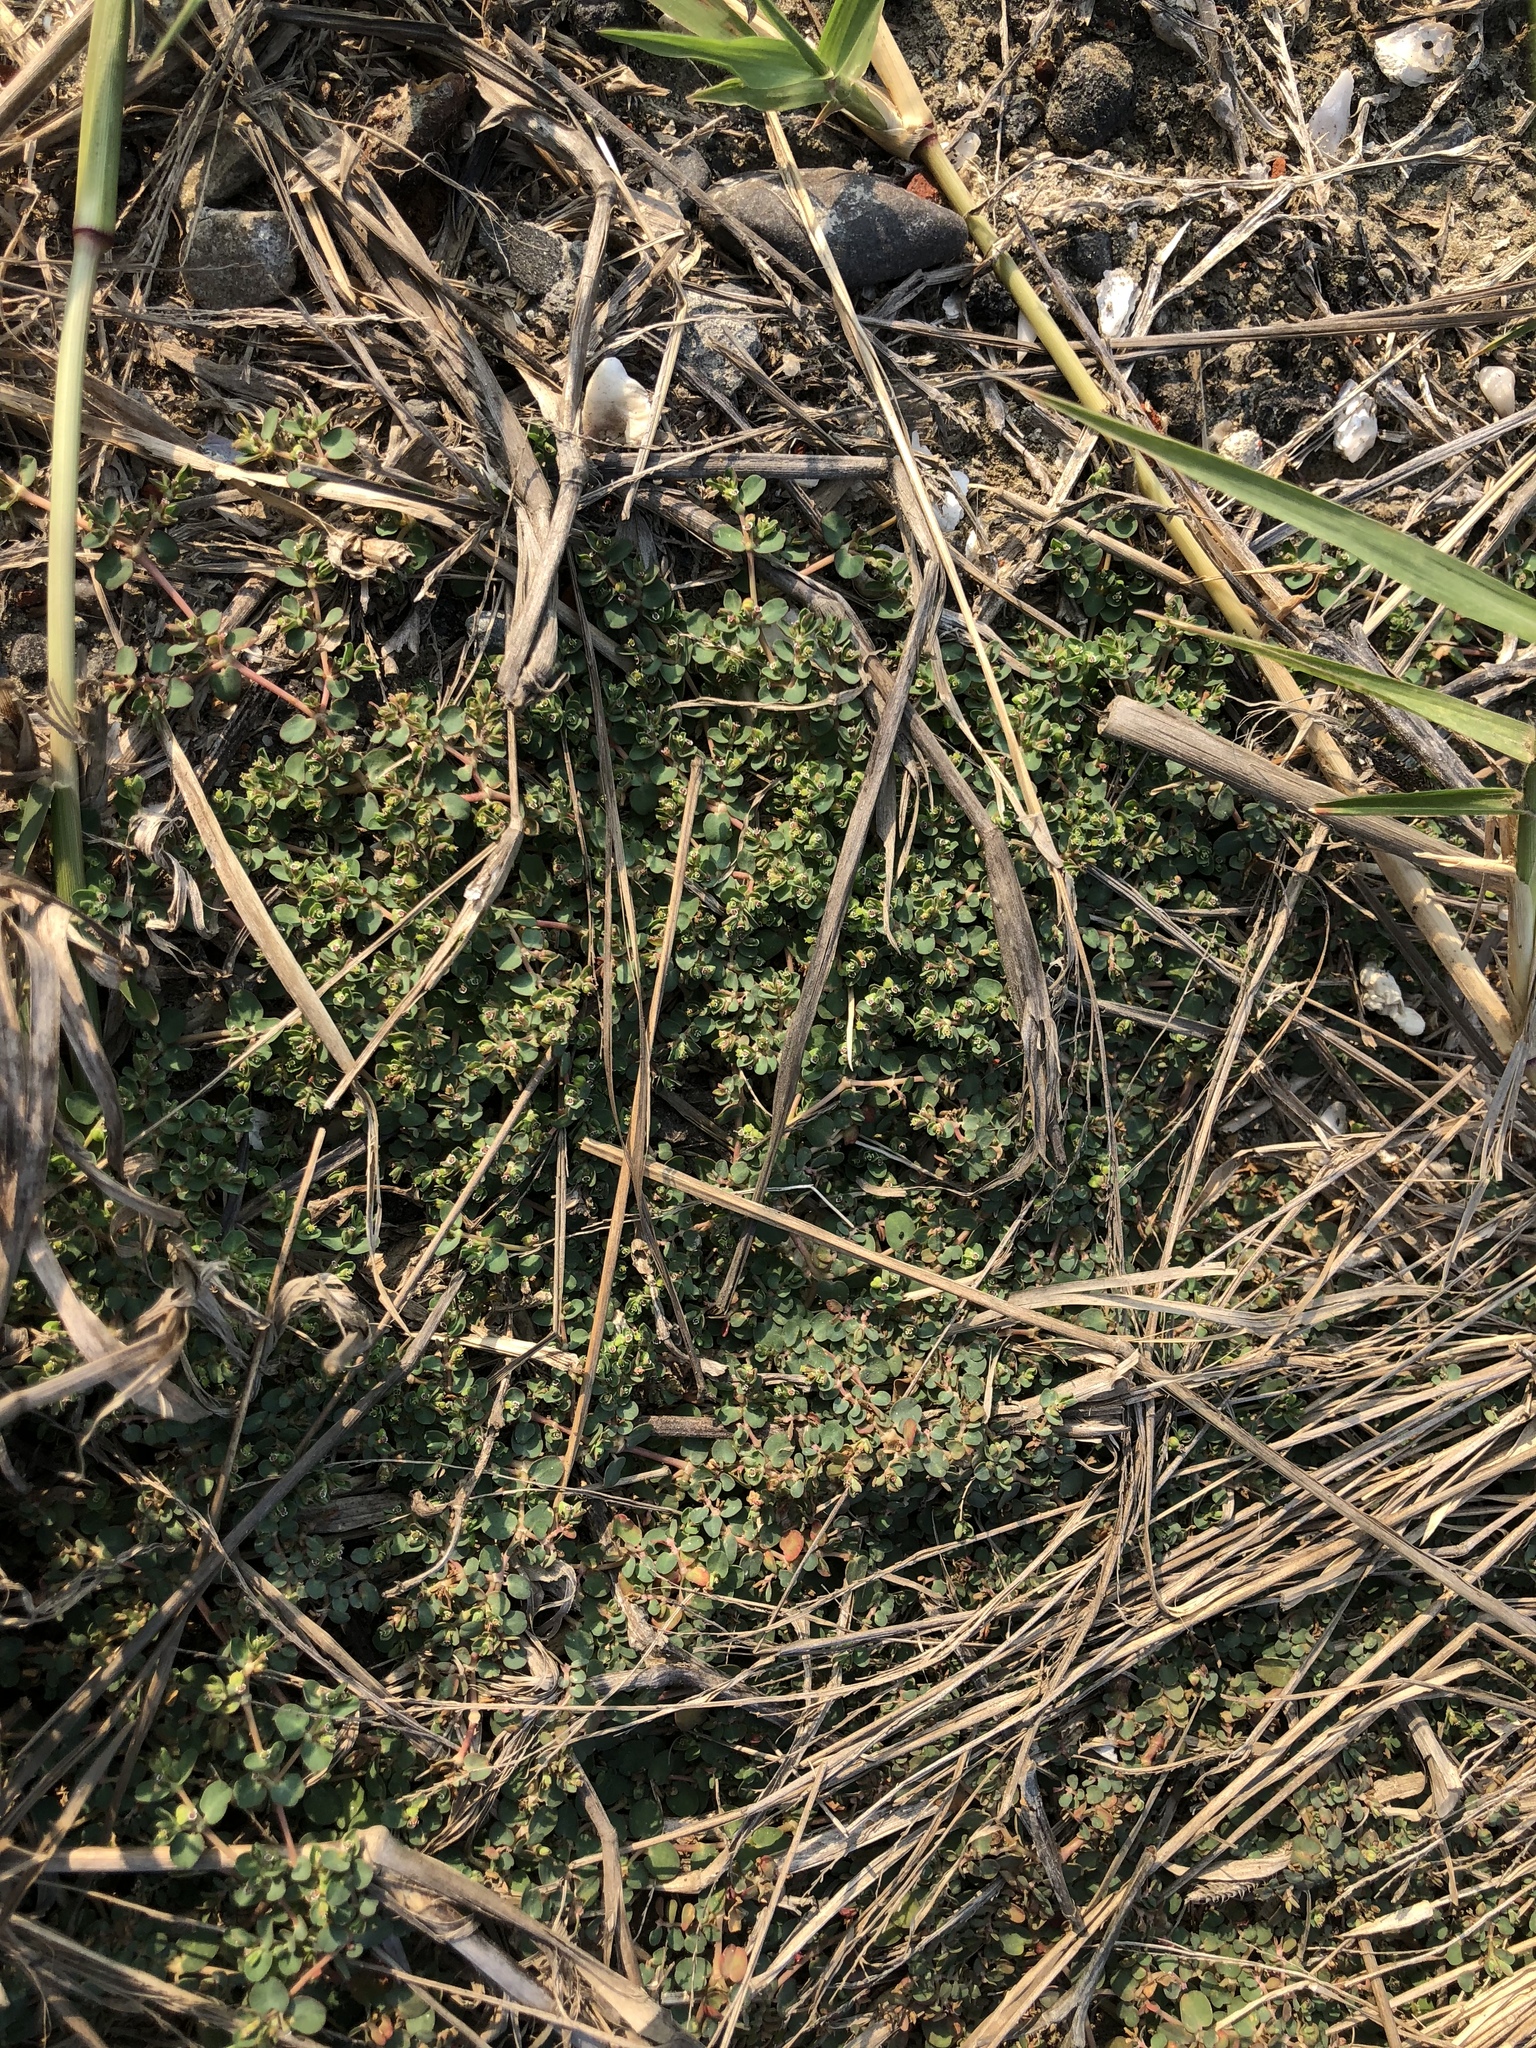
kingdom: Plantae
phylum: Tracheophyta
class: Magnoliopsida
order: Malpighiales
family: Euphorbiaceae
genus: Euphorbia
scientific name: Euphorbia serpens
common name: Matted sandmat
